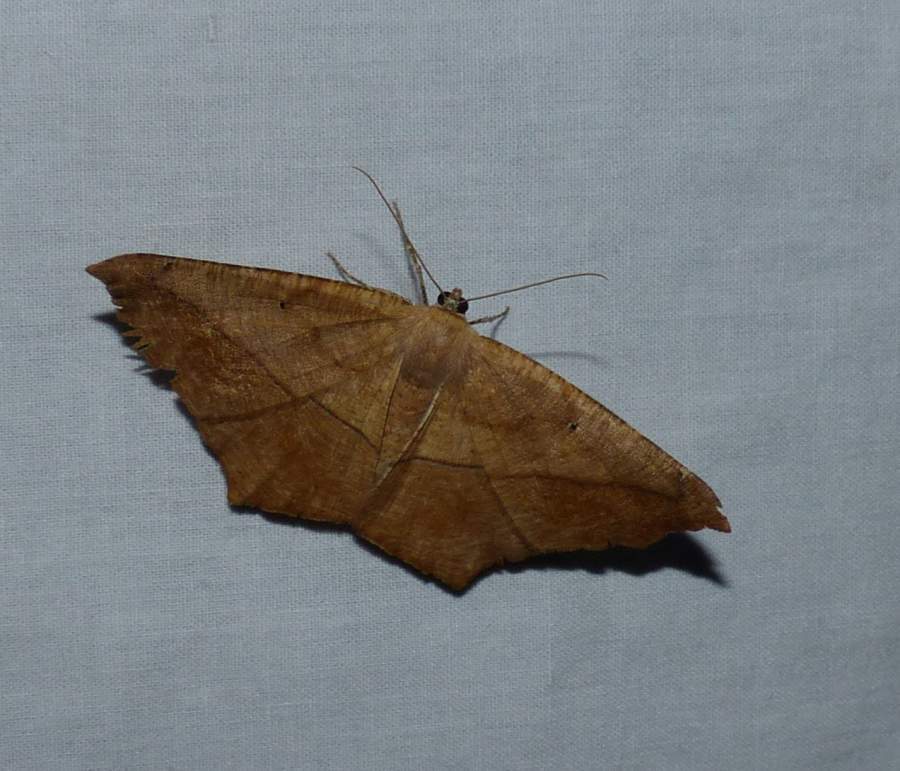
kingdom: Animalia
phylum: Arthropoda
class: Insecta
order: Lepidoptera
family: Geometridae
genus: Prochoerodes
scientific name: Prochoerodes lineola
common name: Large maple spanworm
